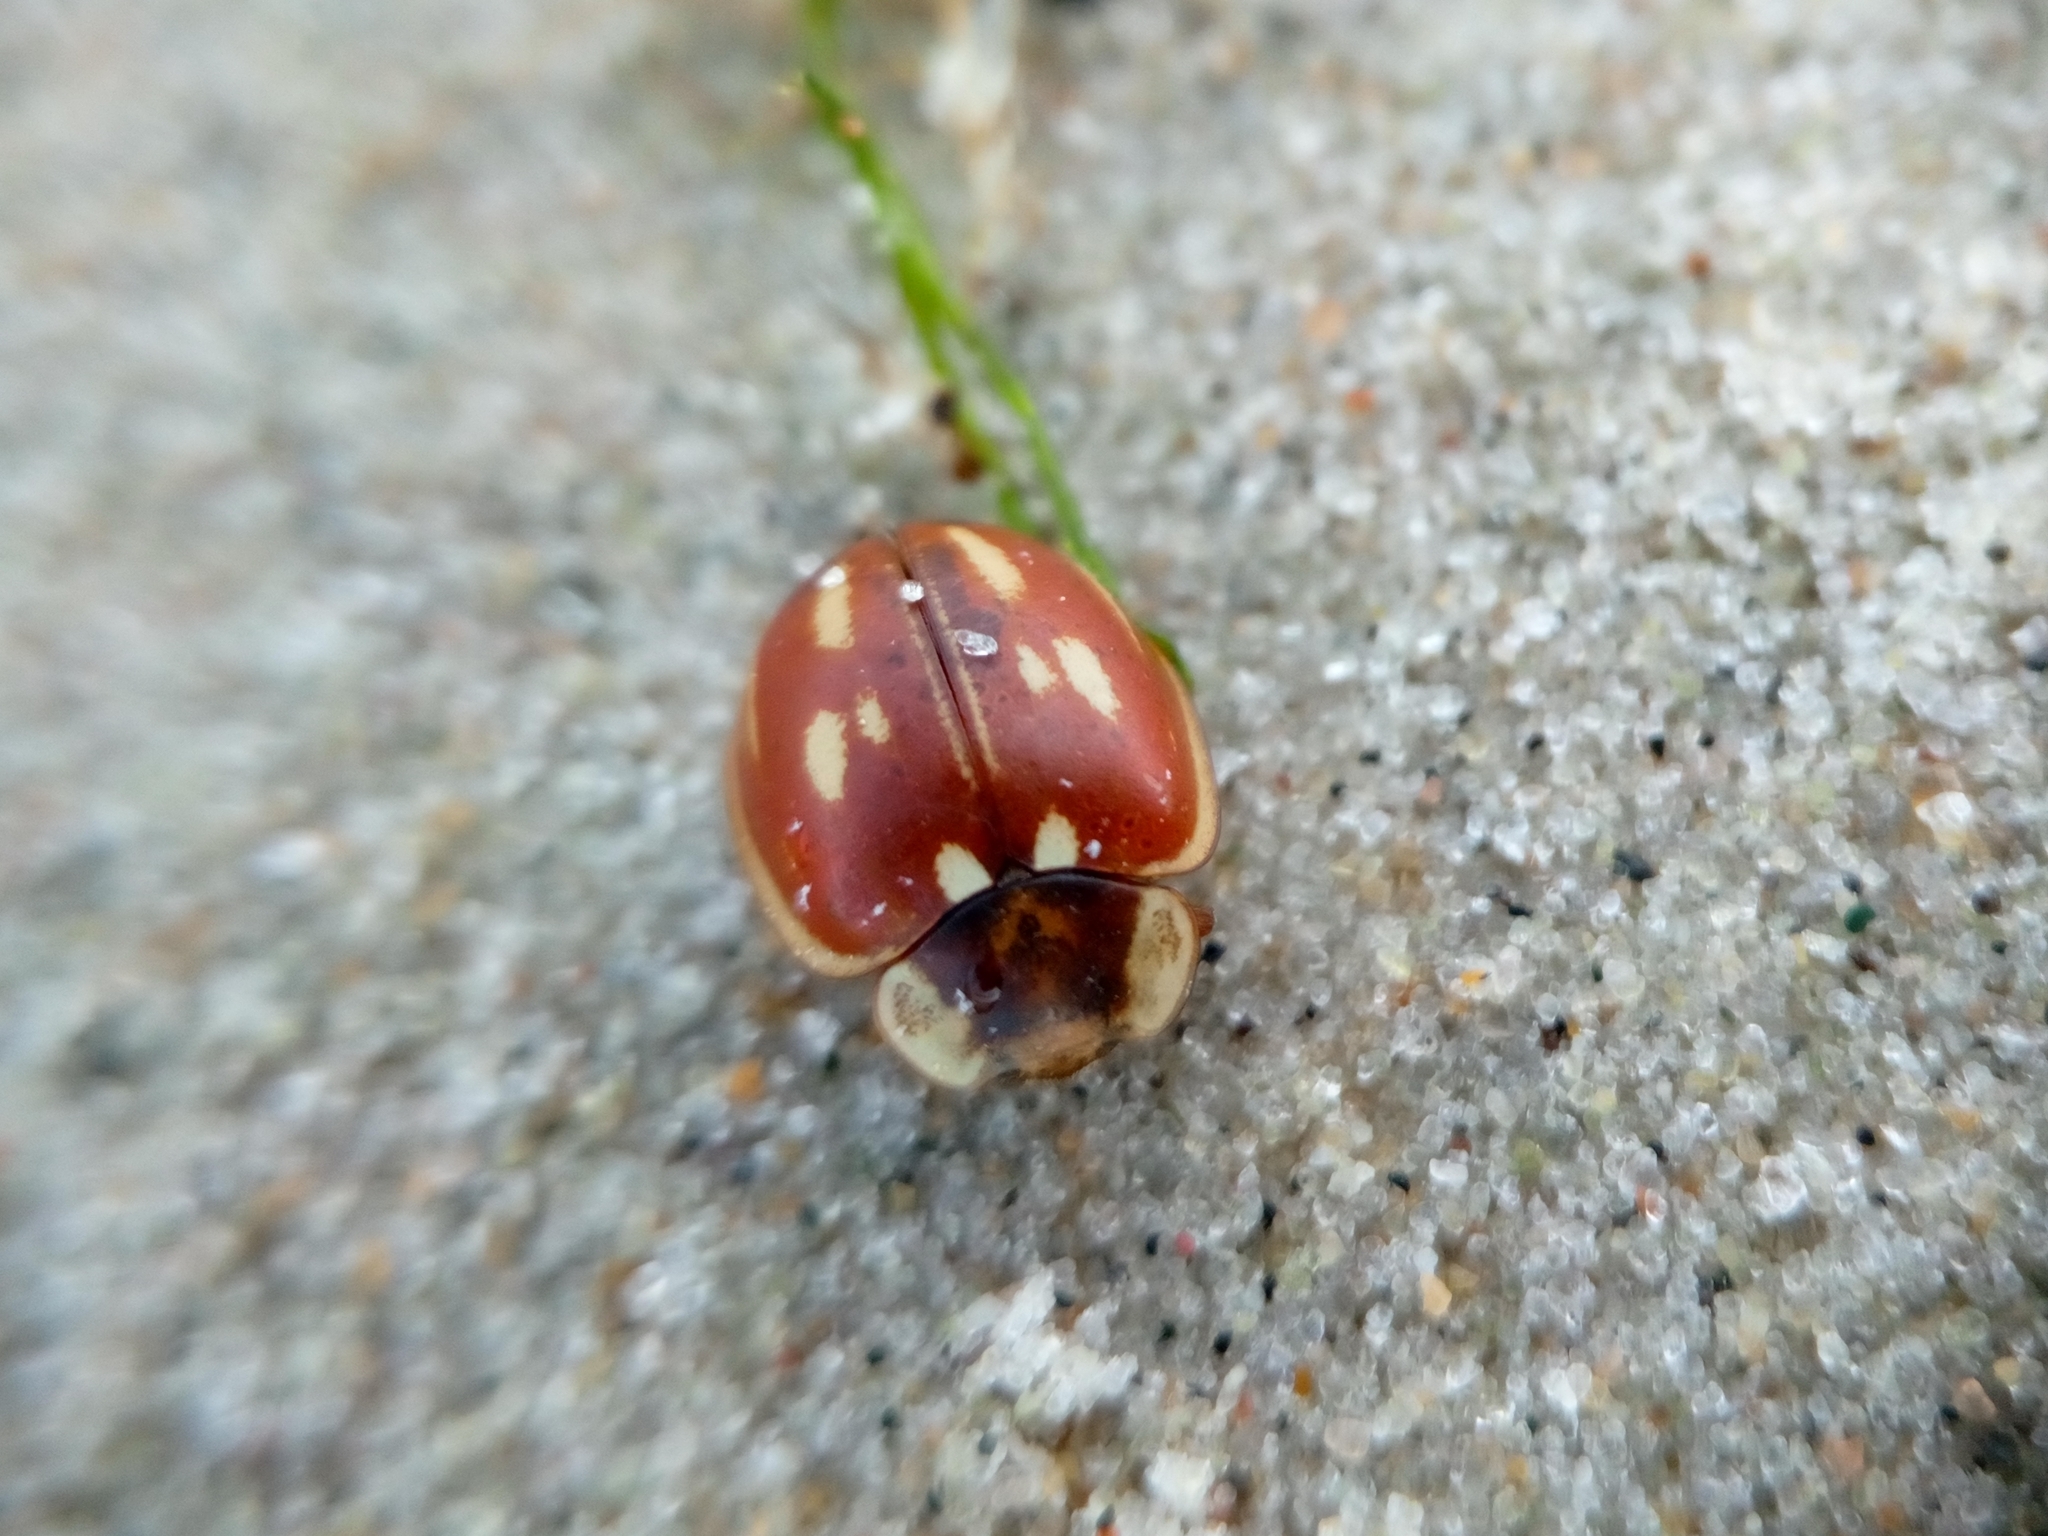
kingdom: Animalia
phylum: Arthropoda
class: Insecta
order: Coleoptera
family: Coccinellidae
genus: Myzia
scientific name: Myzia oblongoguttata
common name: Striped ladybird
